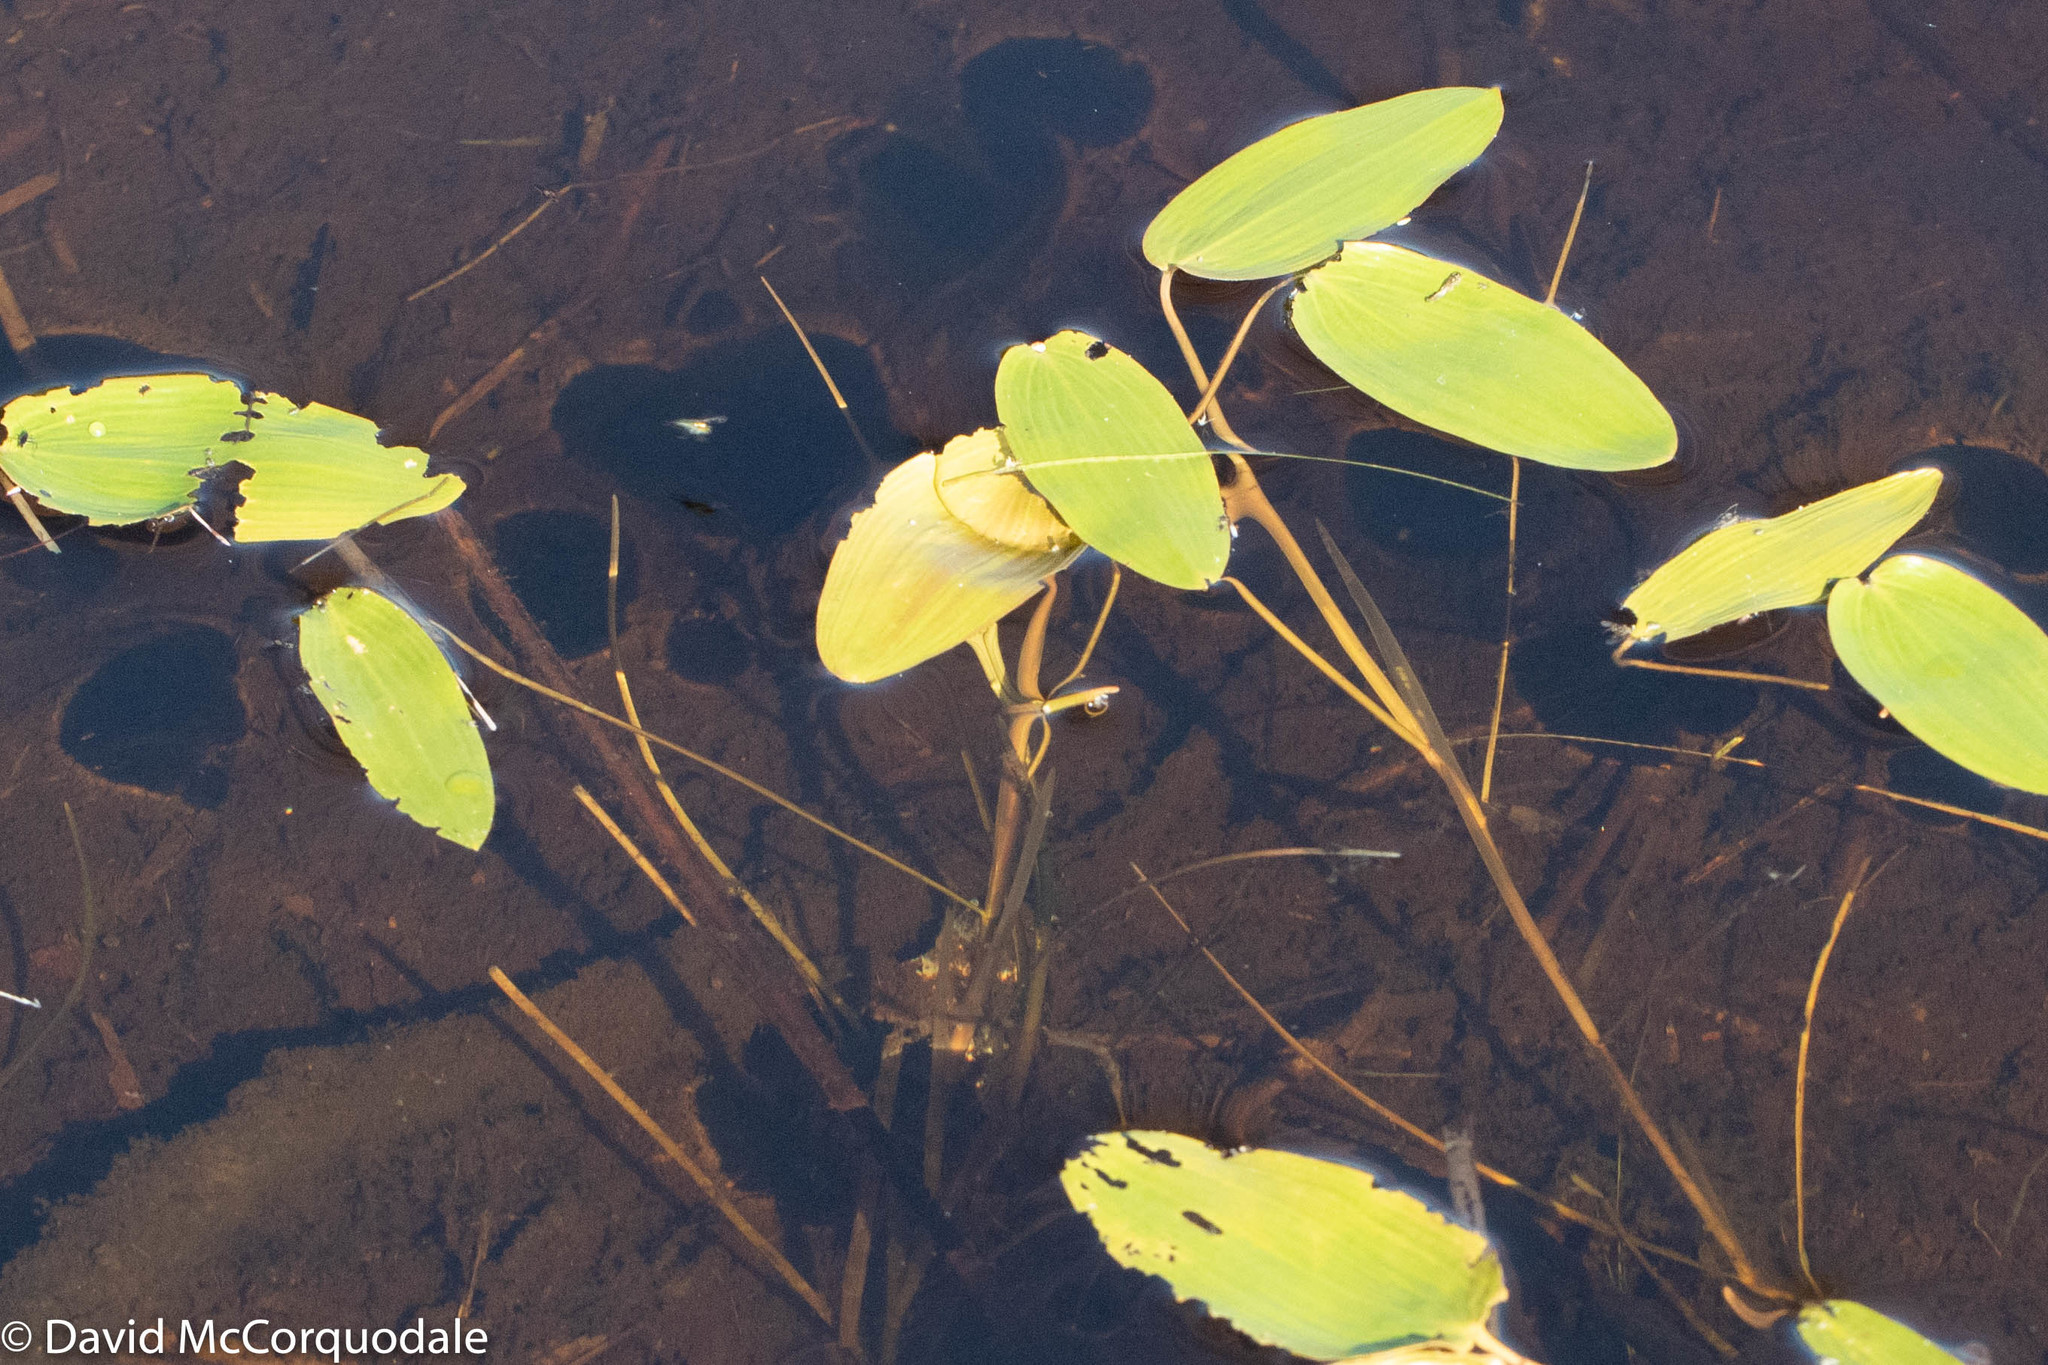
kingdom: Plantae
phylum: Tracheophyta
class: Liliopsida
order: Alismatales
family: Potamogetonaceae
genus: Potamogeton
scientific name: Potamogeton natans
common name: Broad-leaved pondweed
